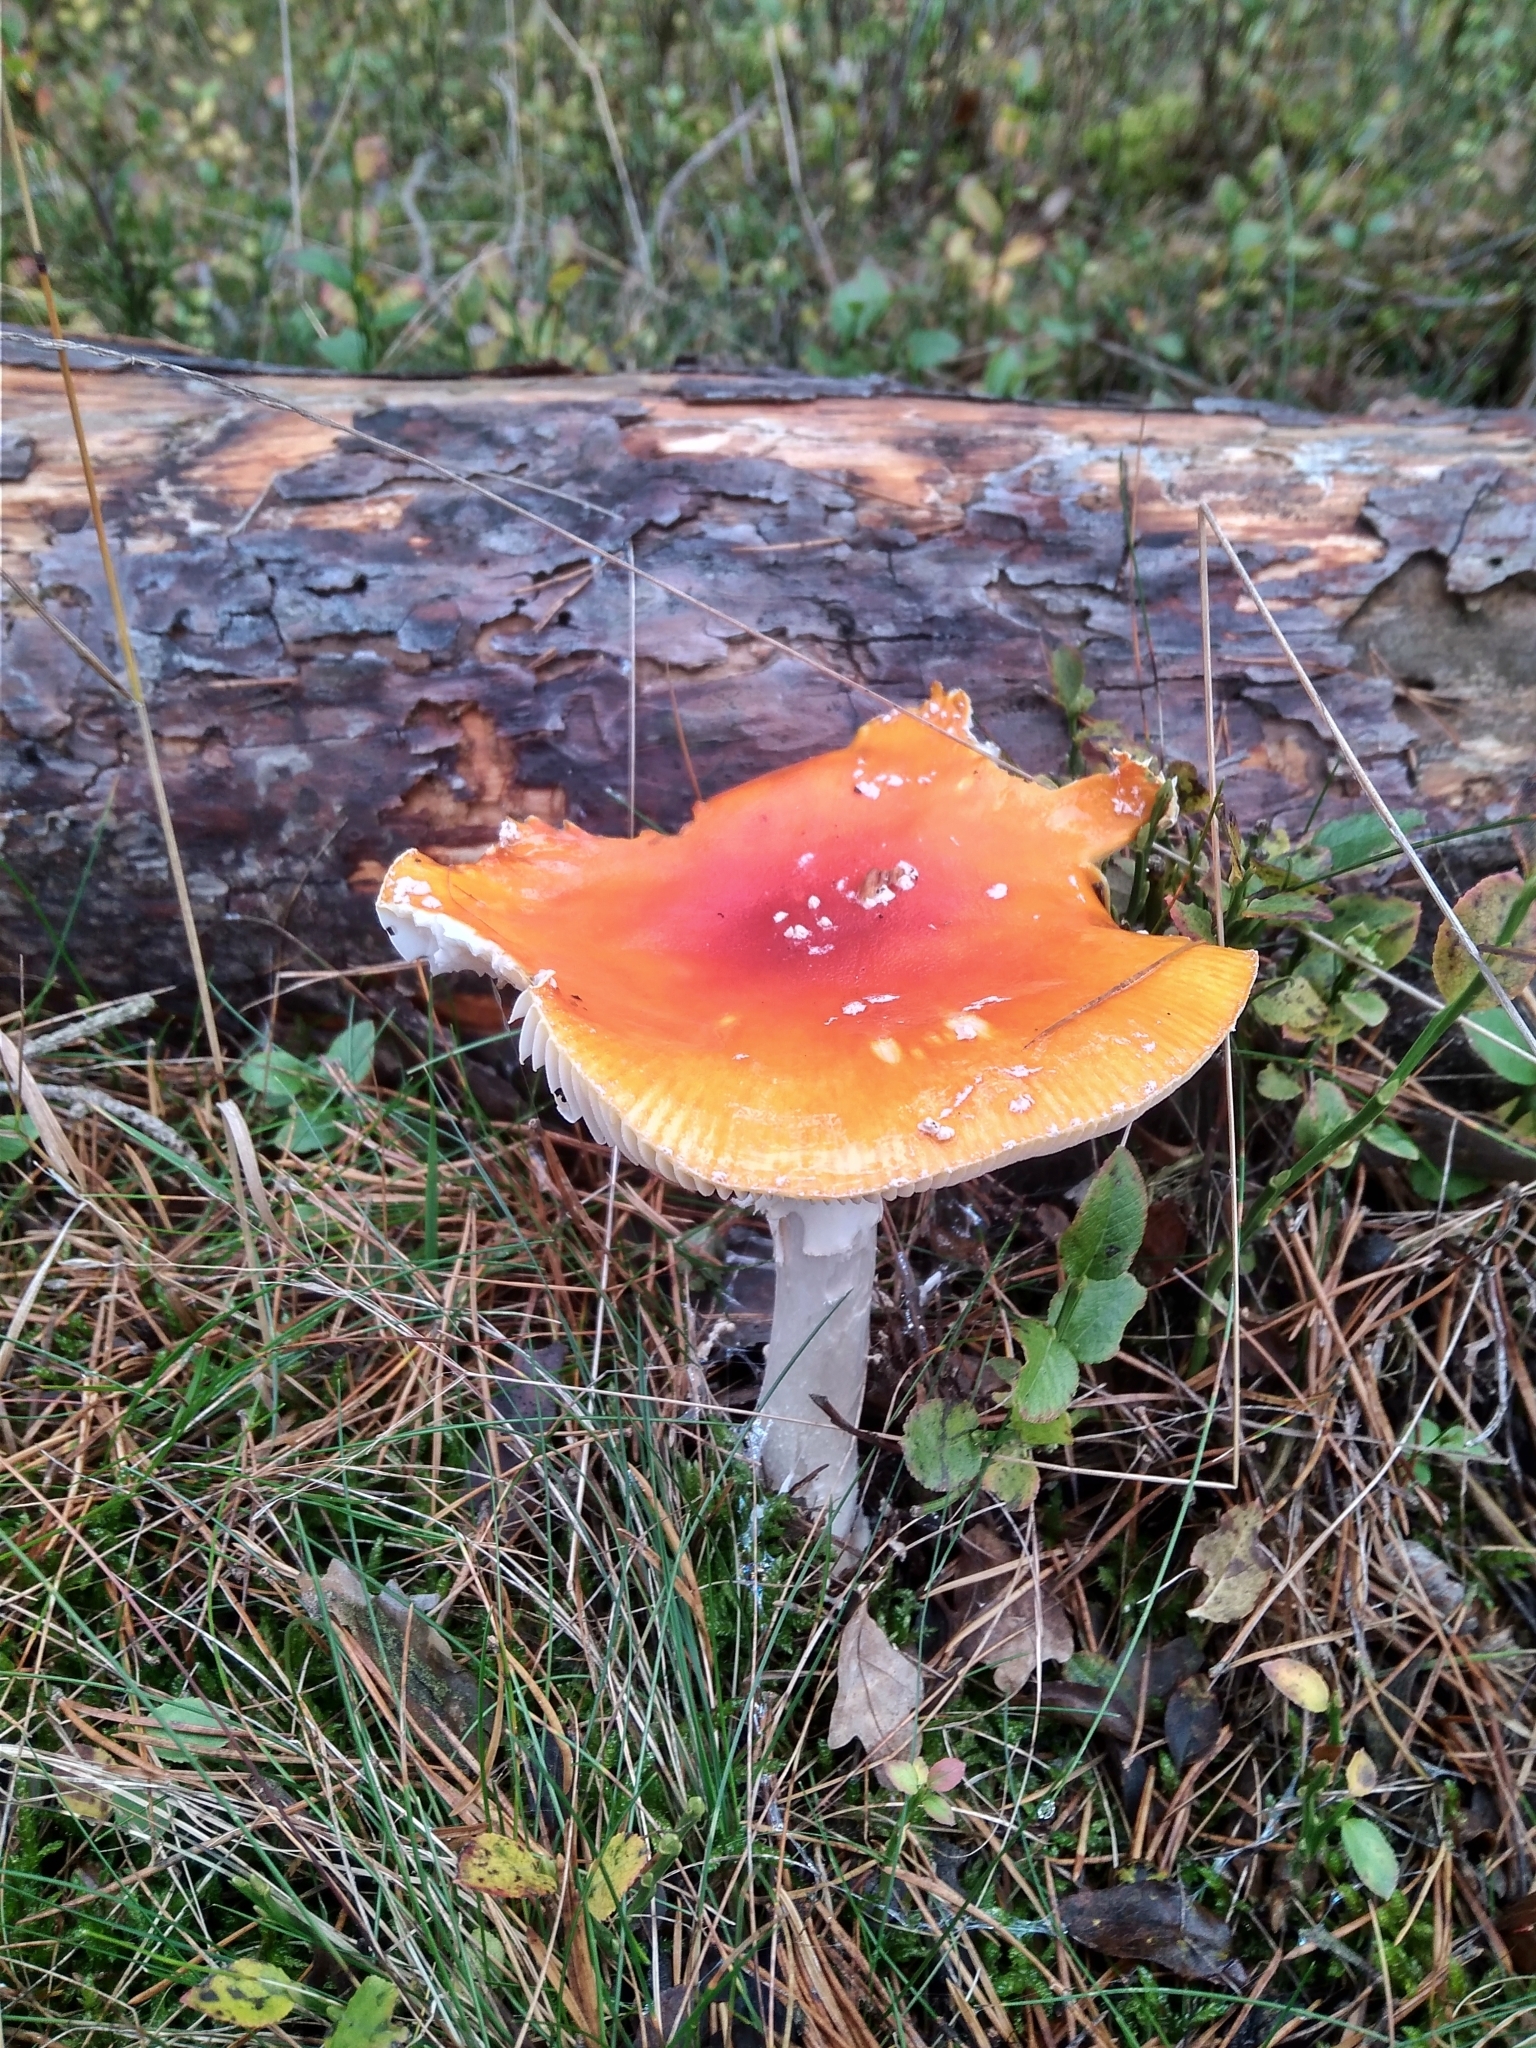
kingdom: Fungi
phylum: Basidiomycota
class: Agaricomycetes
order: Agaricales
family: Amanitaceae
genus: Amanita
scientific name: Amanita muscaria
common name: Fly agaric
